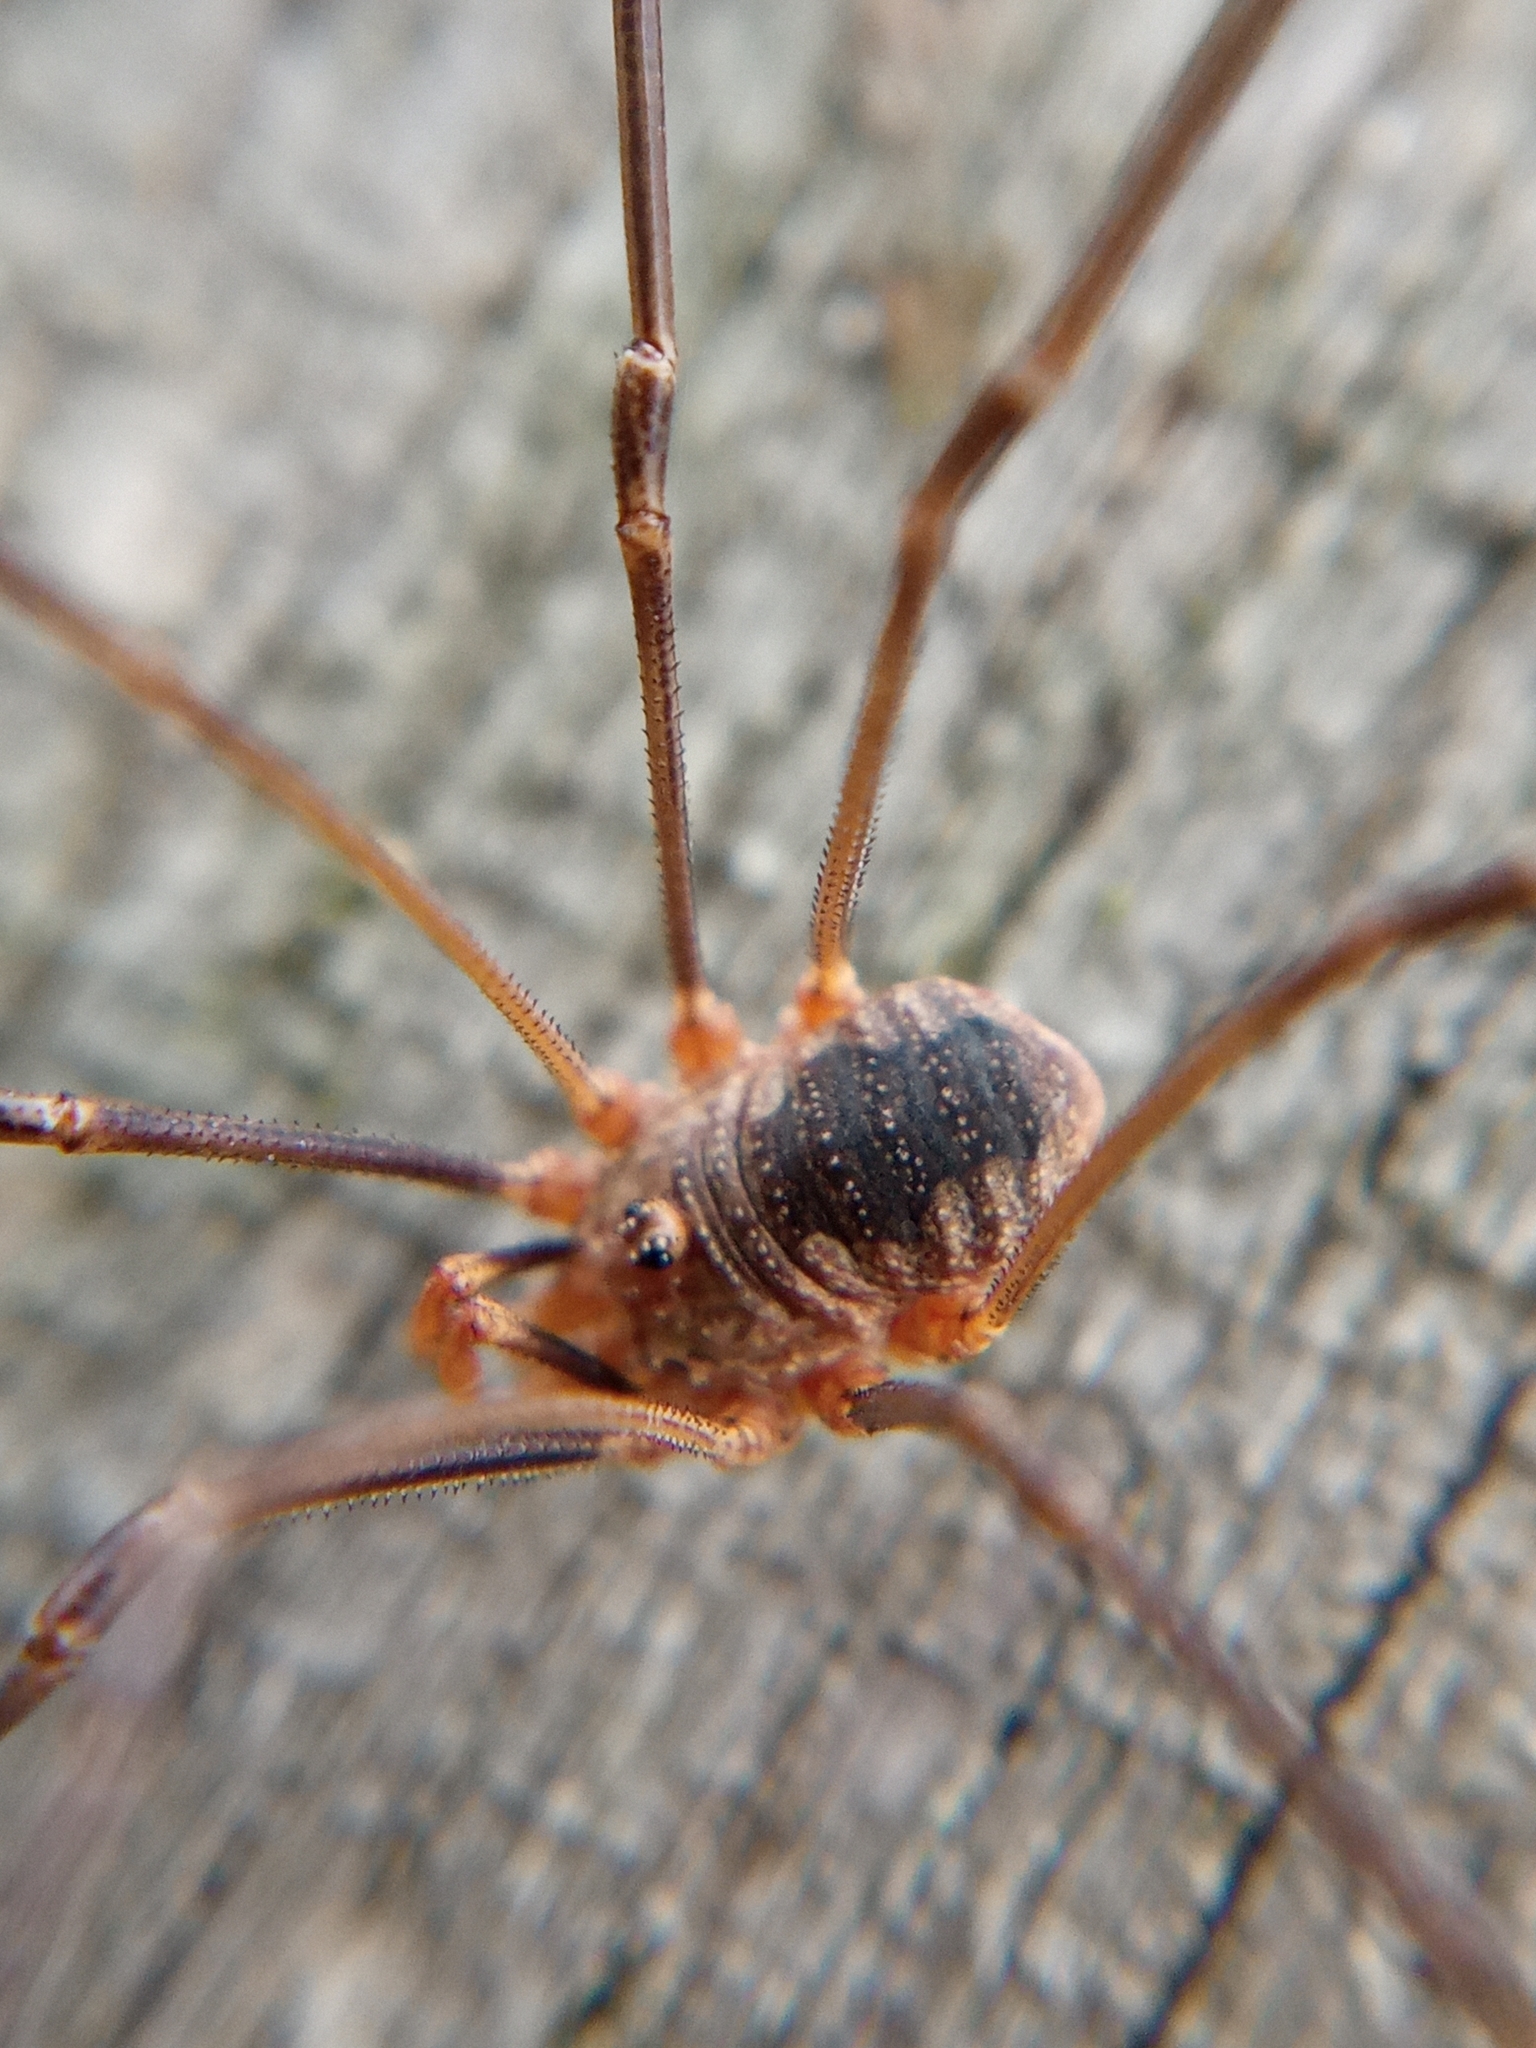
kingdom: Animalia
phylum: Arthropoda
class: Arachnida
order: Opiliones
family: Phalangiidae
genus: Phalangium
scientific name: Phalangium opilio
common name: Daddy longleg
